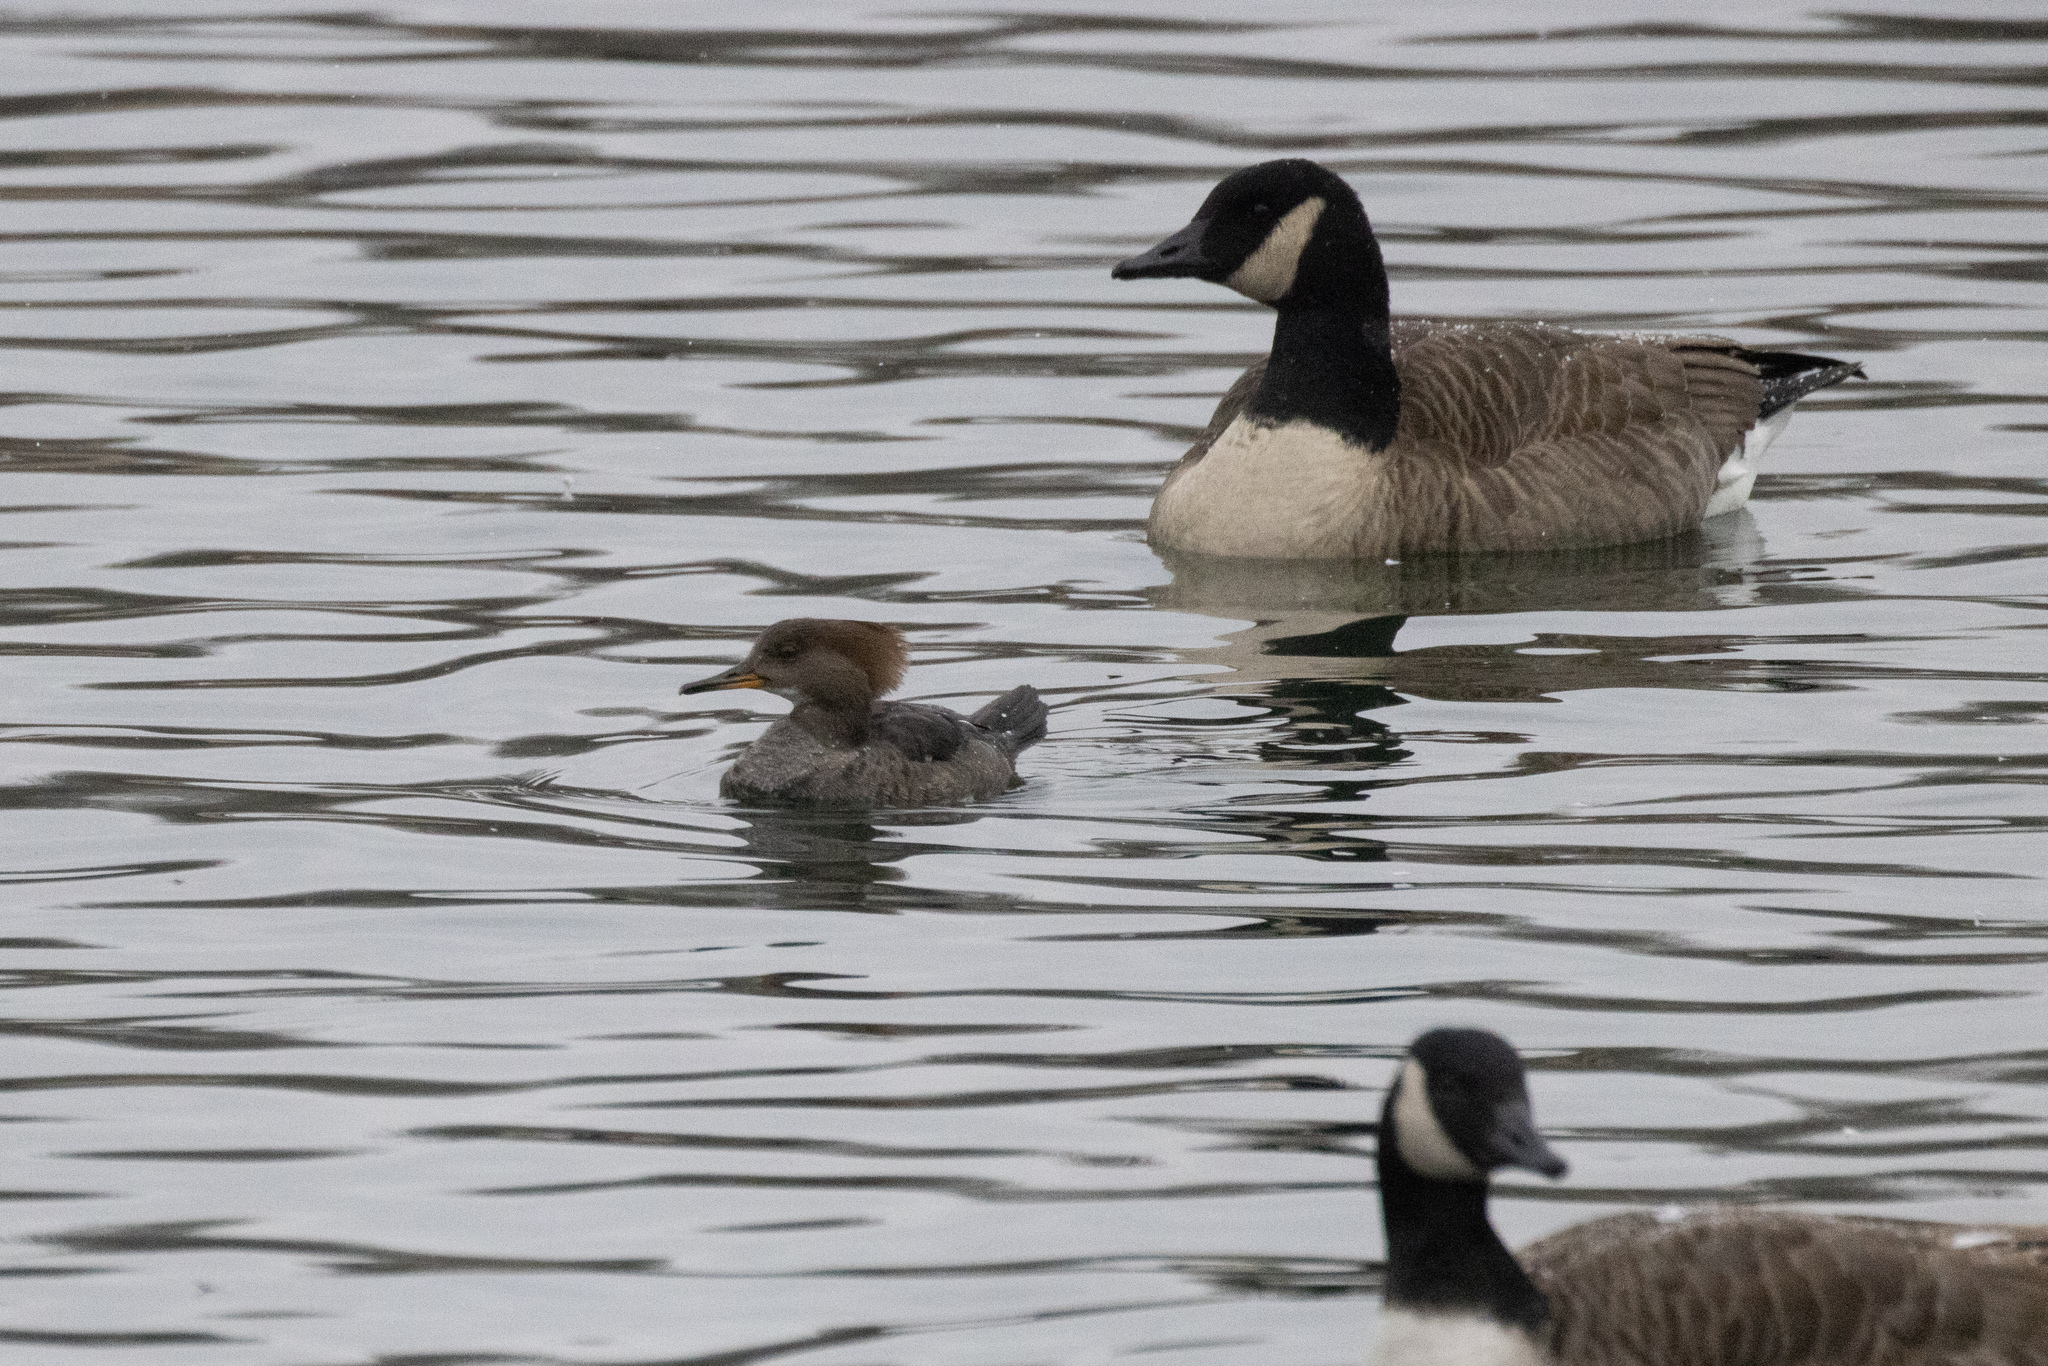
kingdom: Animalia
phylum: Chordata
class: Aves
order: Anseriformes
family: Anatidae
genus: Branta
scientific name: Branta canadensis
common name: Canada goose
